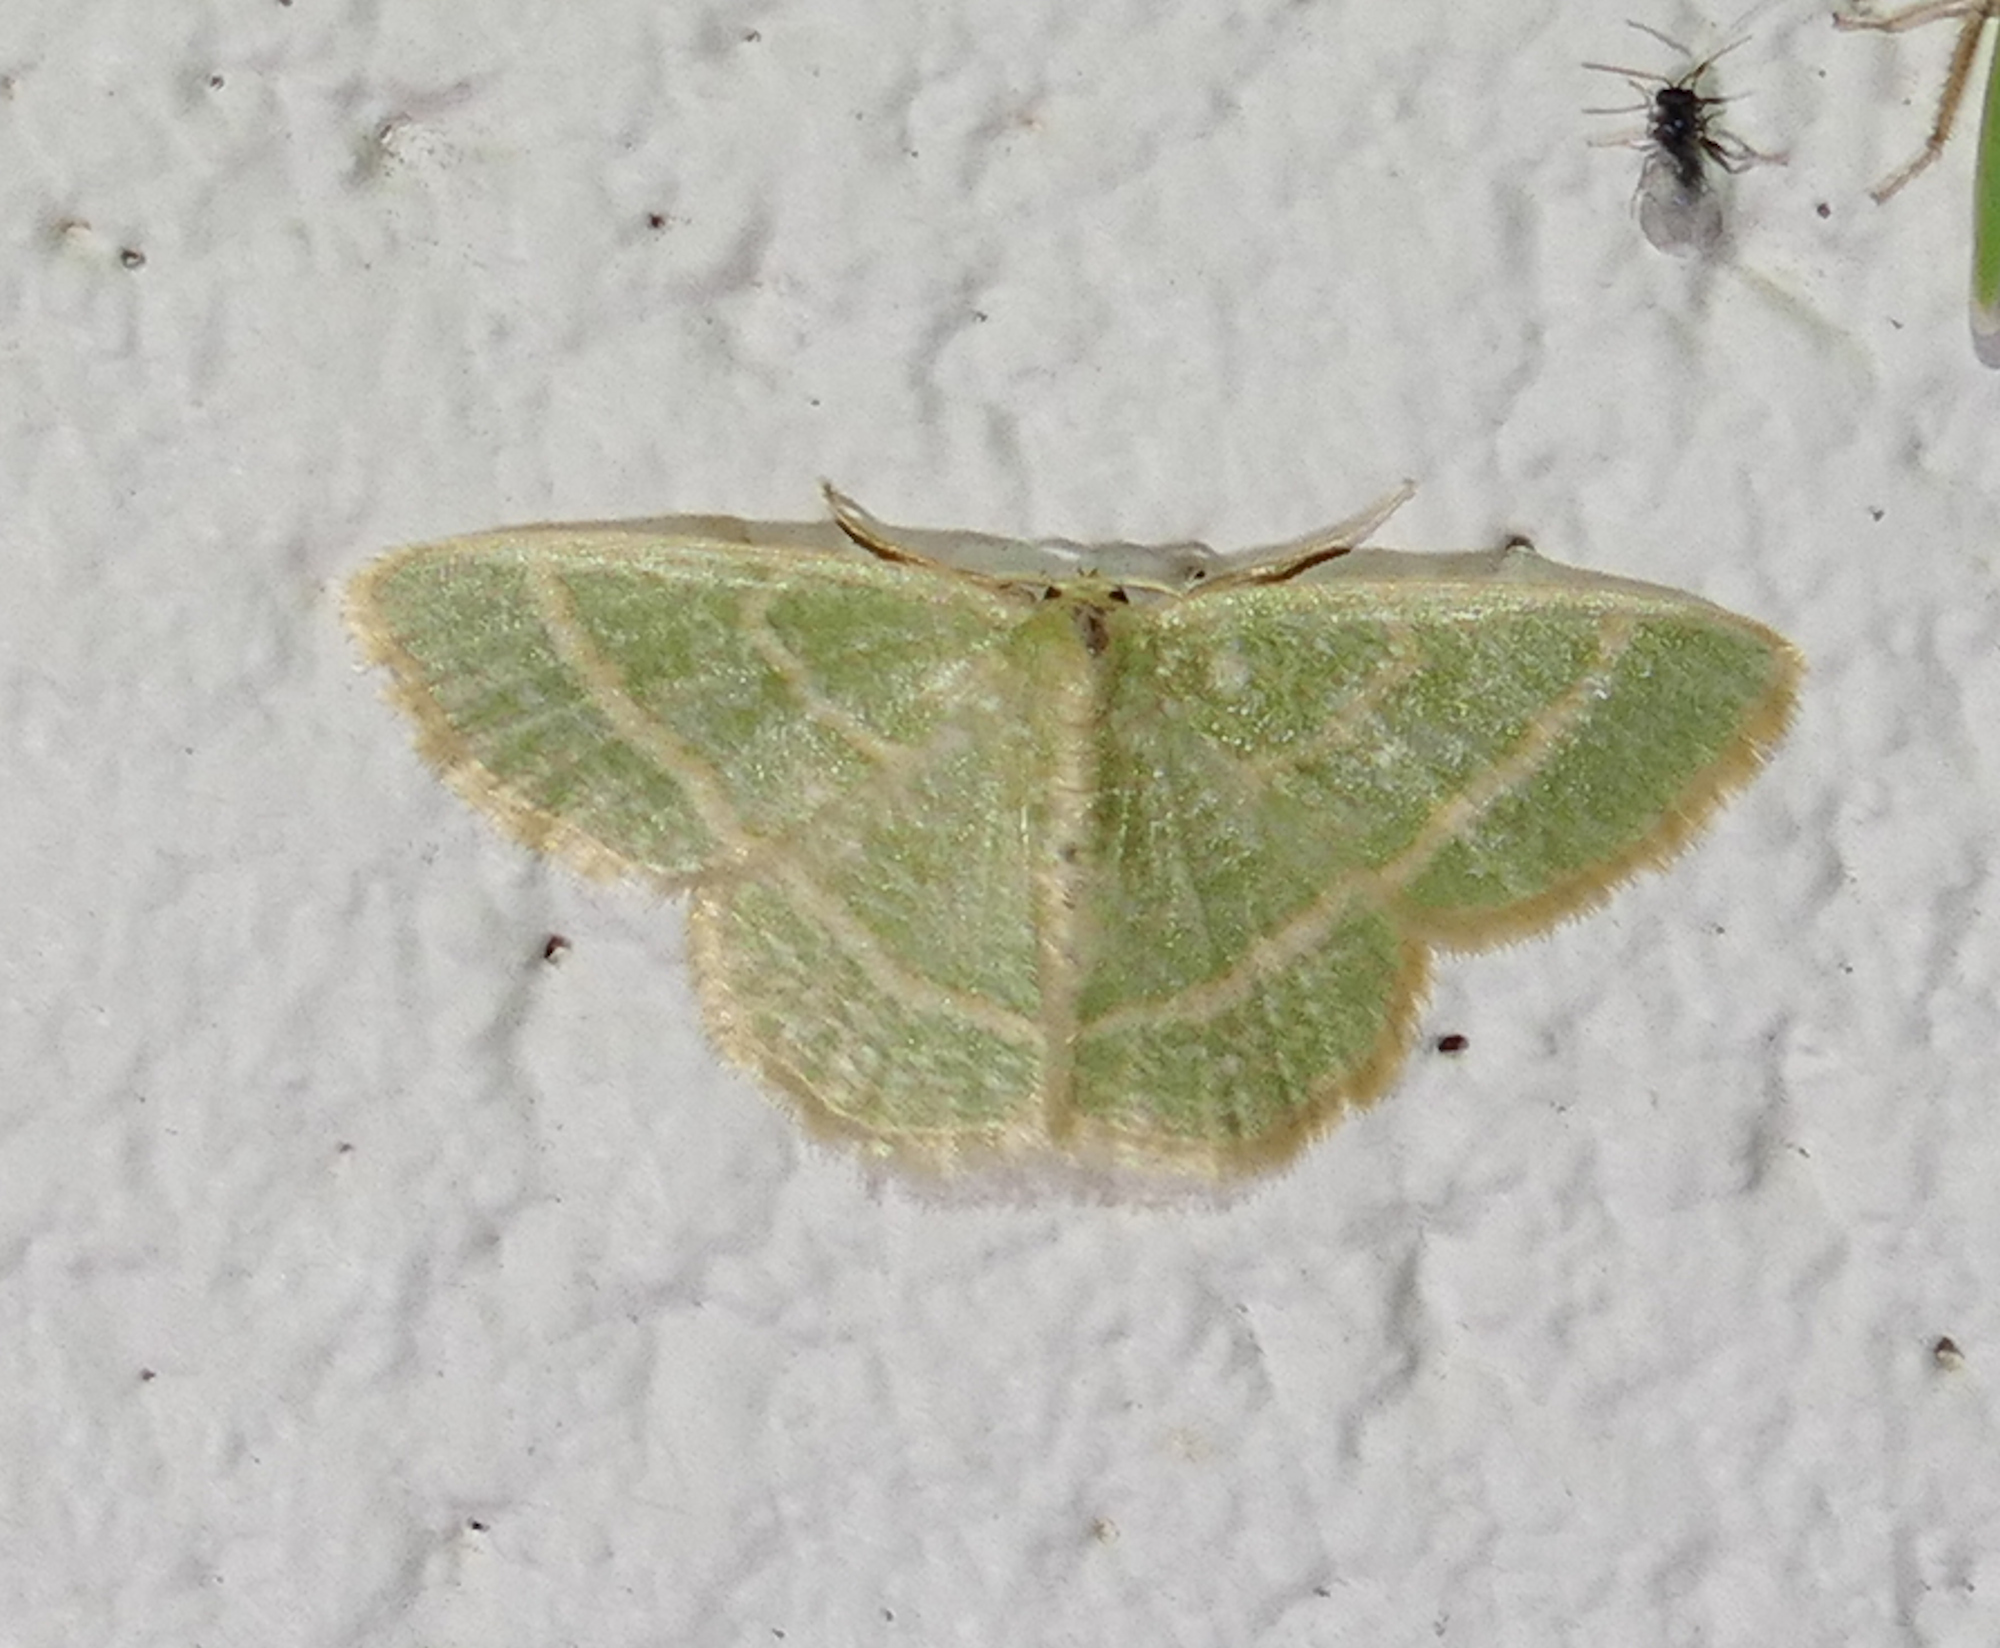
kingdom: Animalia
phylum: Arthropoda
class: Insecta
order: Lepidoptera
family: Geometridae
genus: Chlorochlamys
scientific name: Chlorochlamys chloroleucaria
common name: Blackberry looper
